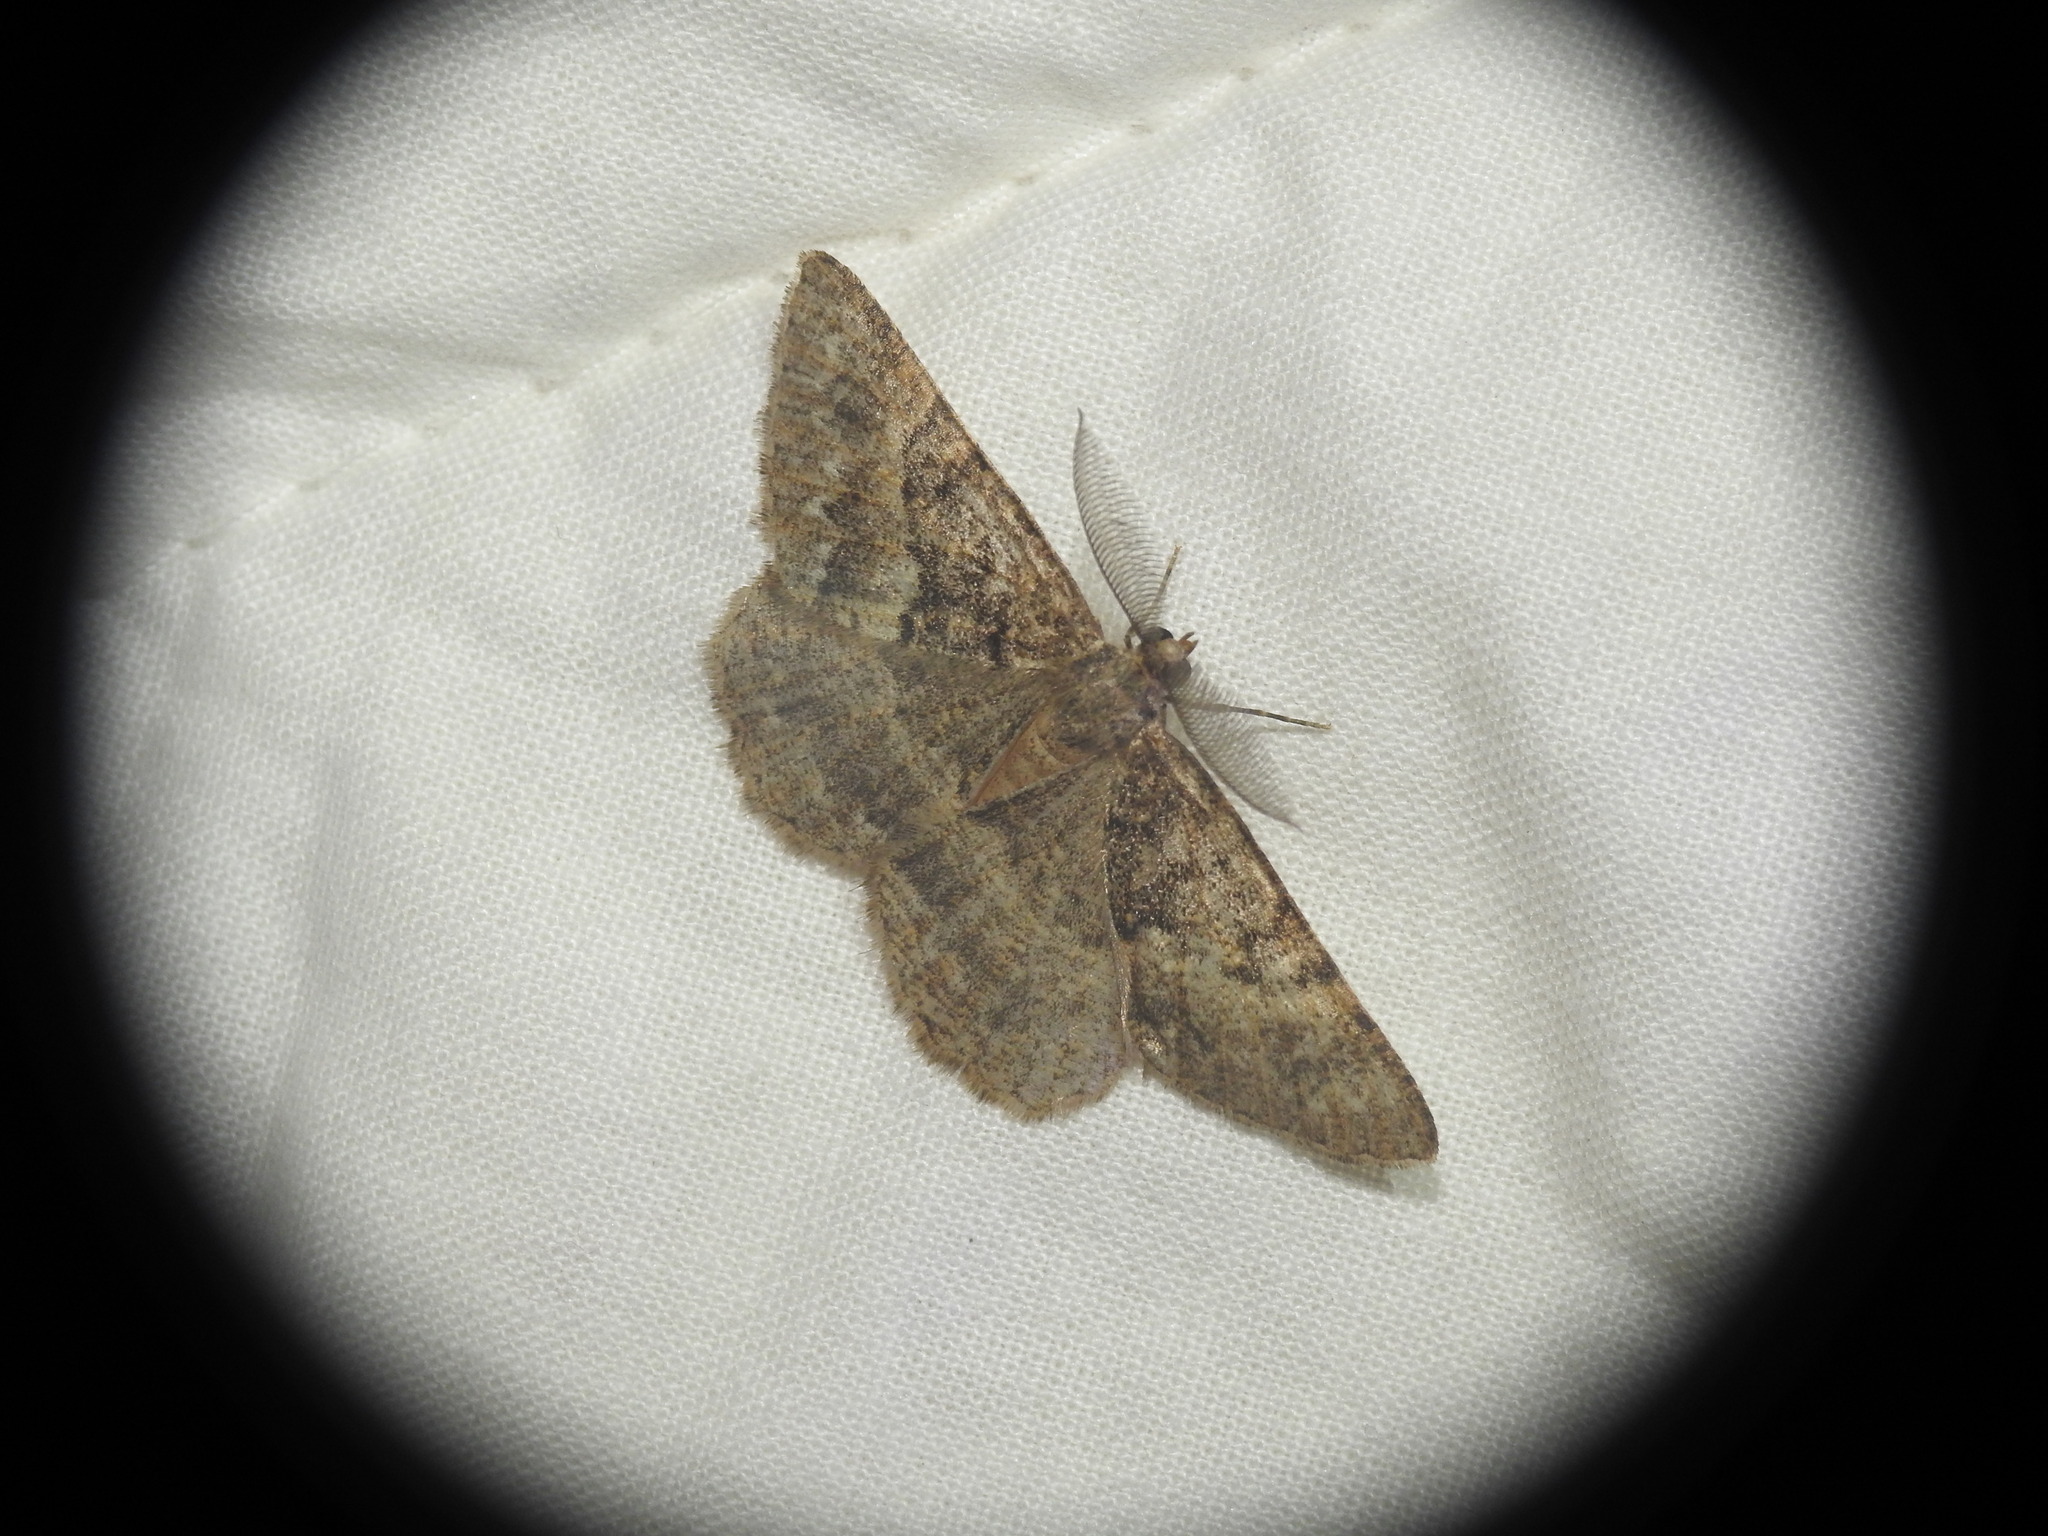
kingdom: Animalia
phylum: Arthropoda
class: Insecta
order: Lepidoptera
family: Geometridae
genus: Selidosema
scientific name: Selidosema taeniolaria
